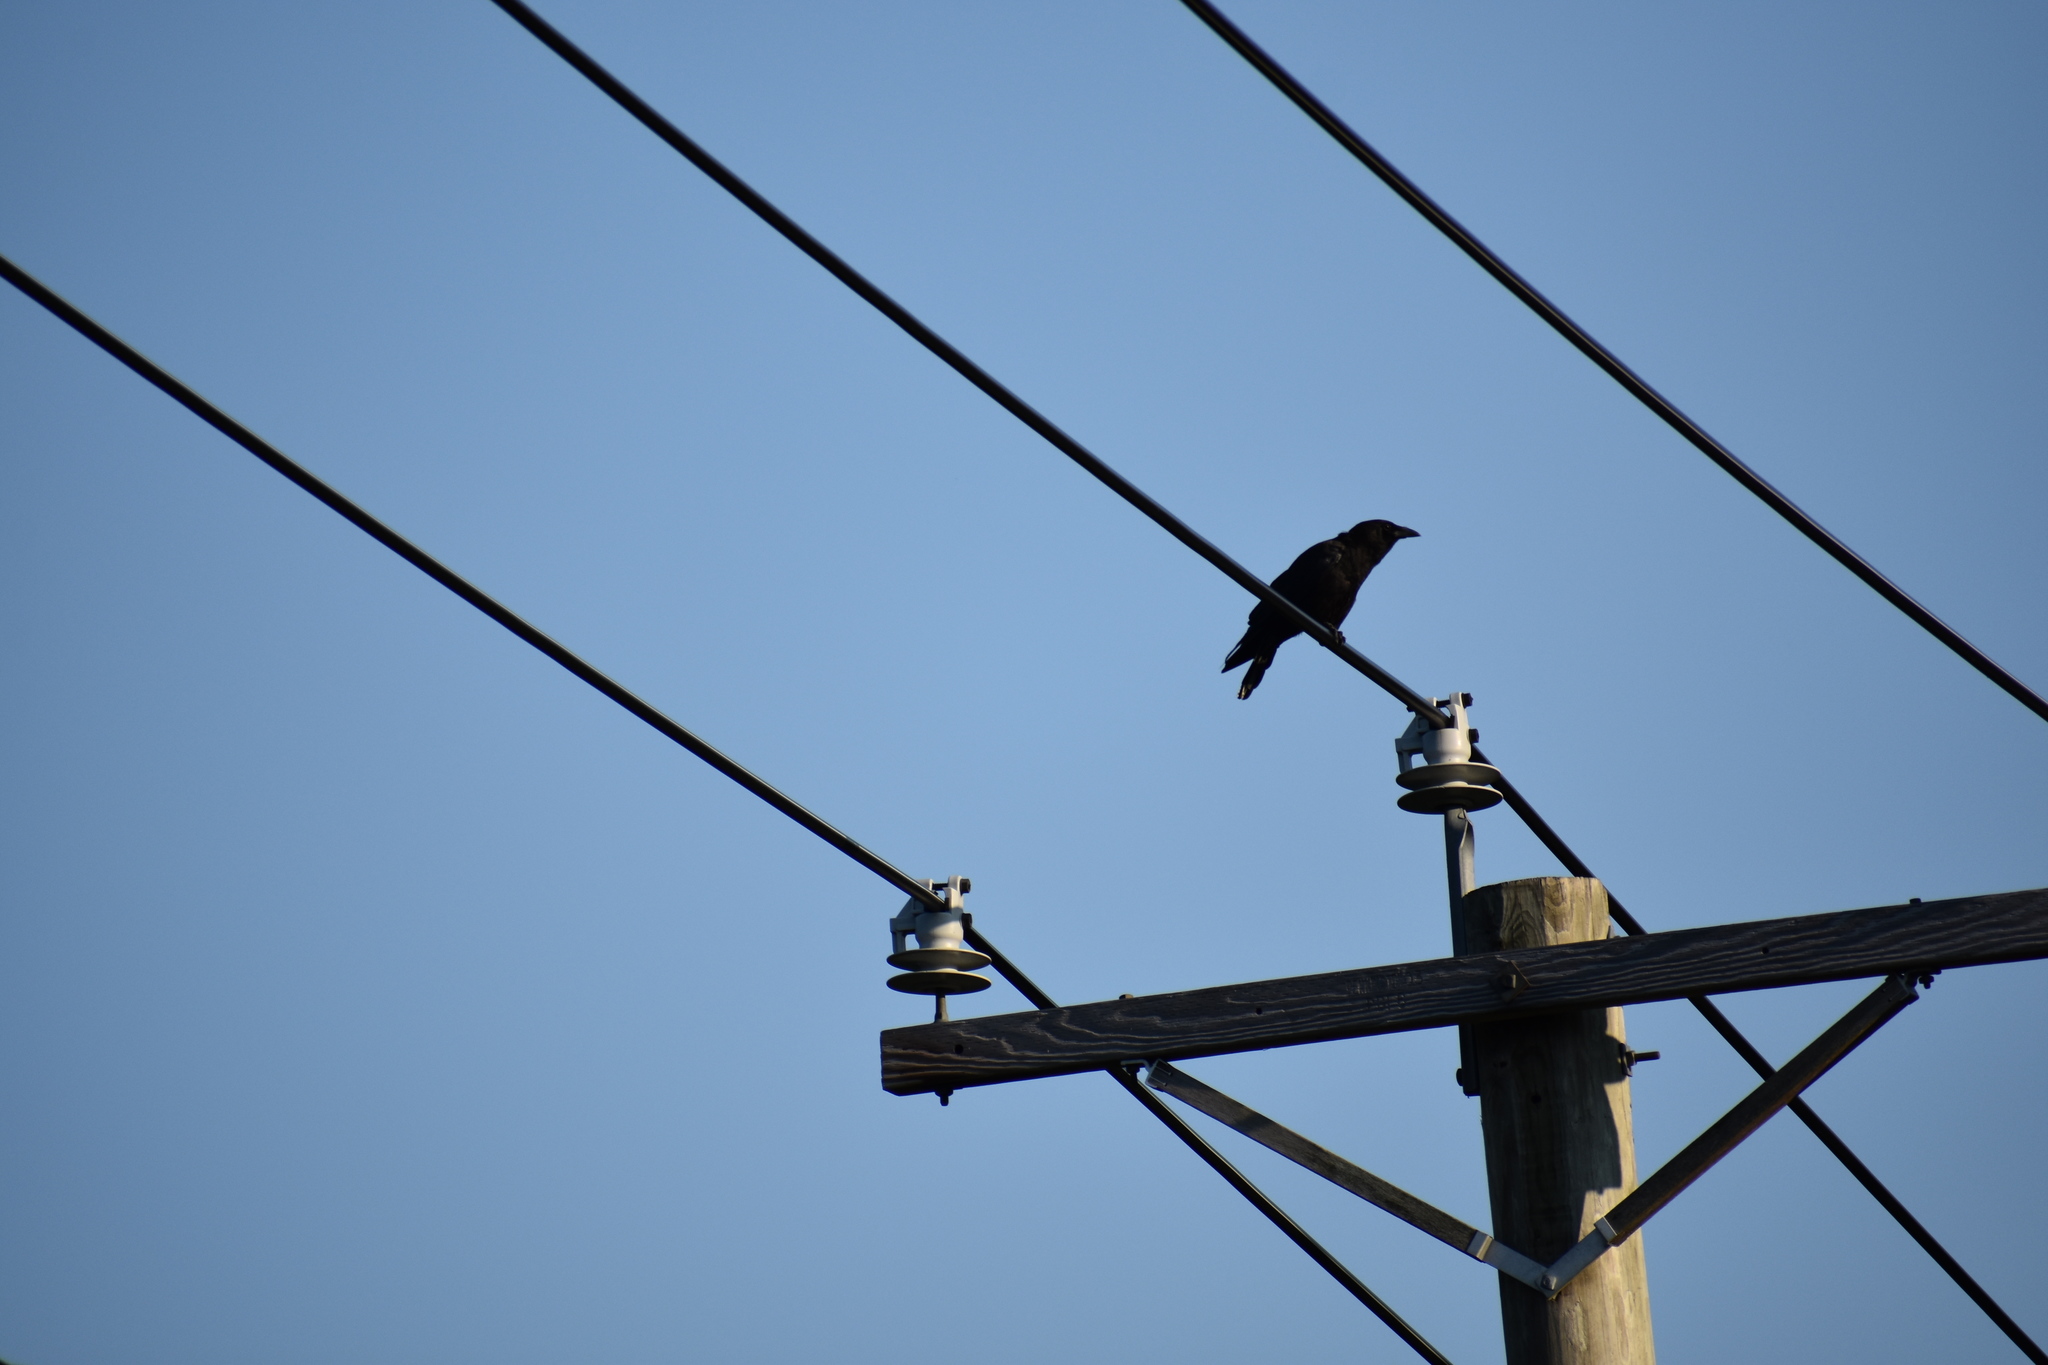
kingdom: Animalia
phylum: Chordata
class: Aves
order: Passeriformes
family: Corvidae
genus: Corvus
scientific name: Corvus brachyrhynchos
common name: American crow
